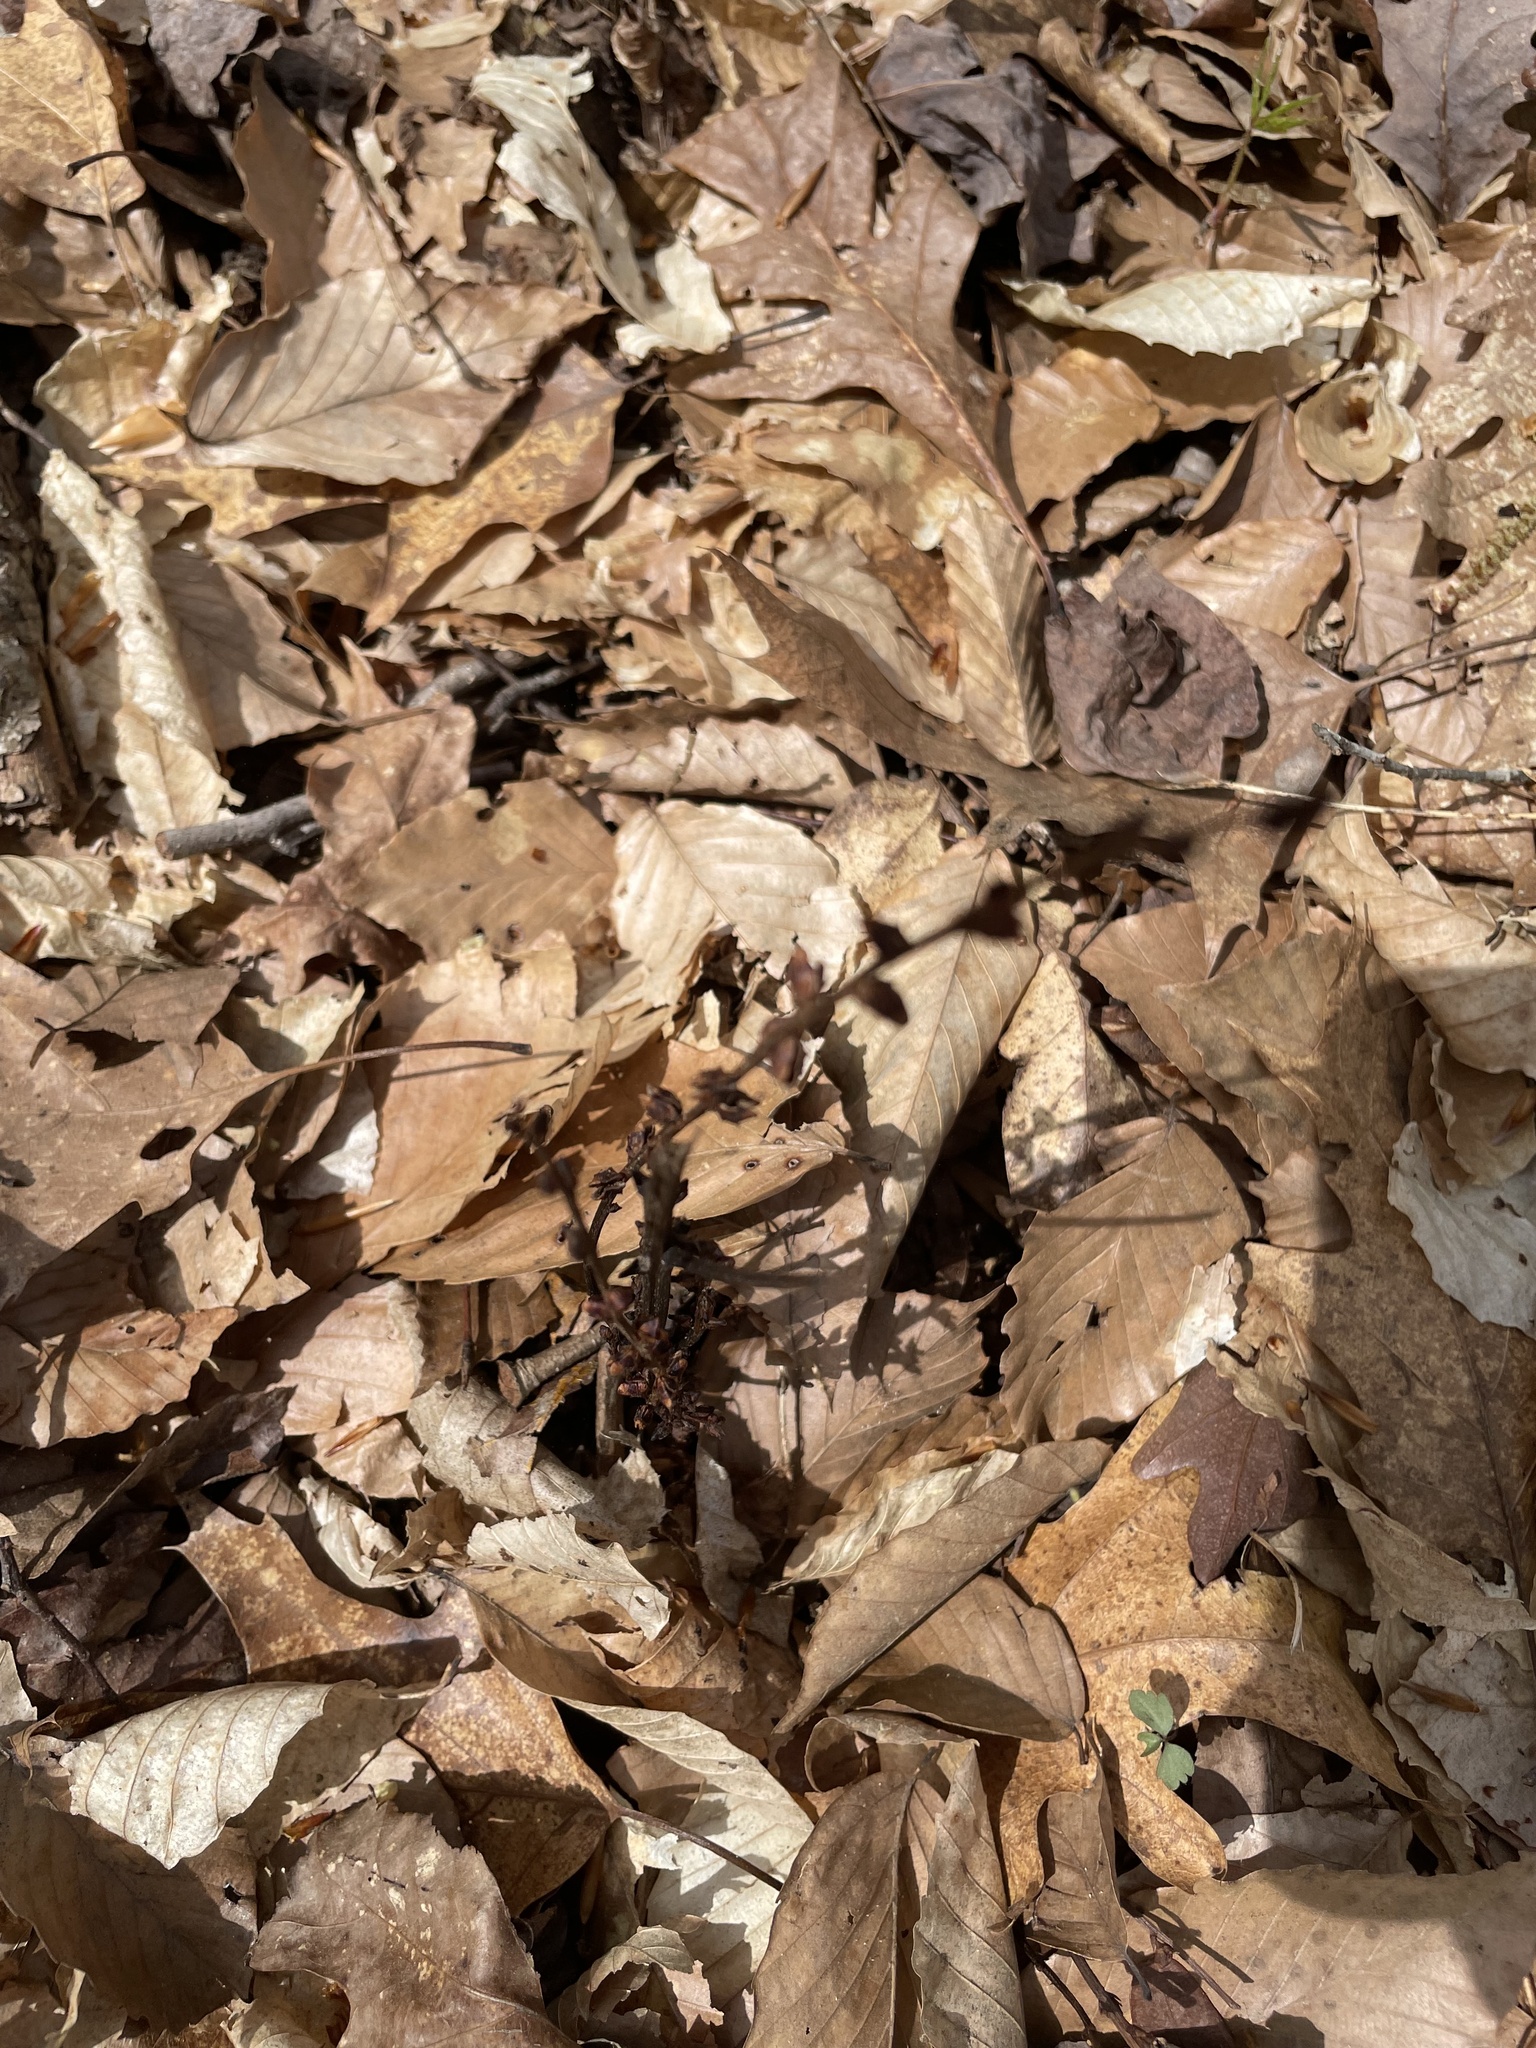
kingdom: Plantae
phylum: Tracheophyta
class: Magnoliopsida
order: Lamiales
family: Orobanchaceae
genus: Epifagus
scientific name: Epifagus virginiana
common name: Beechdrops
